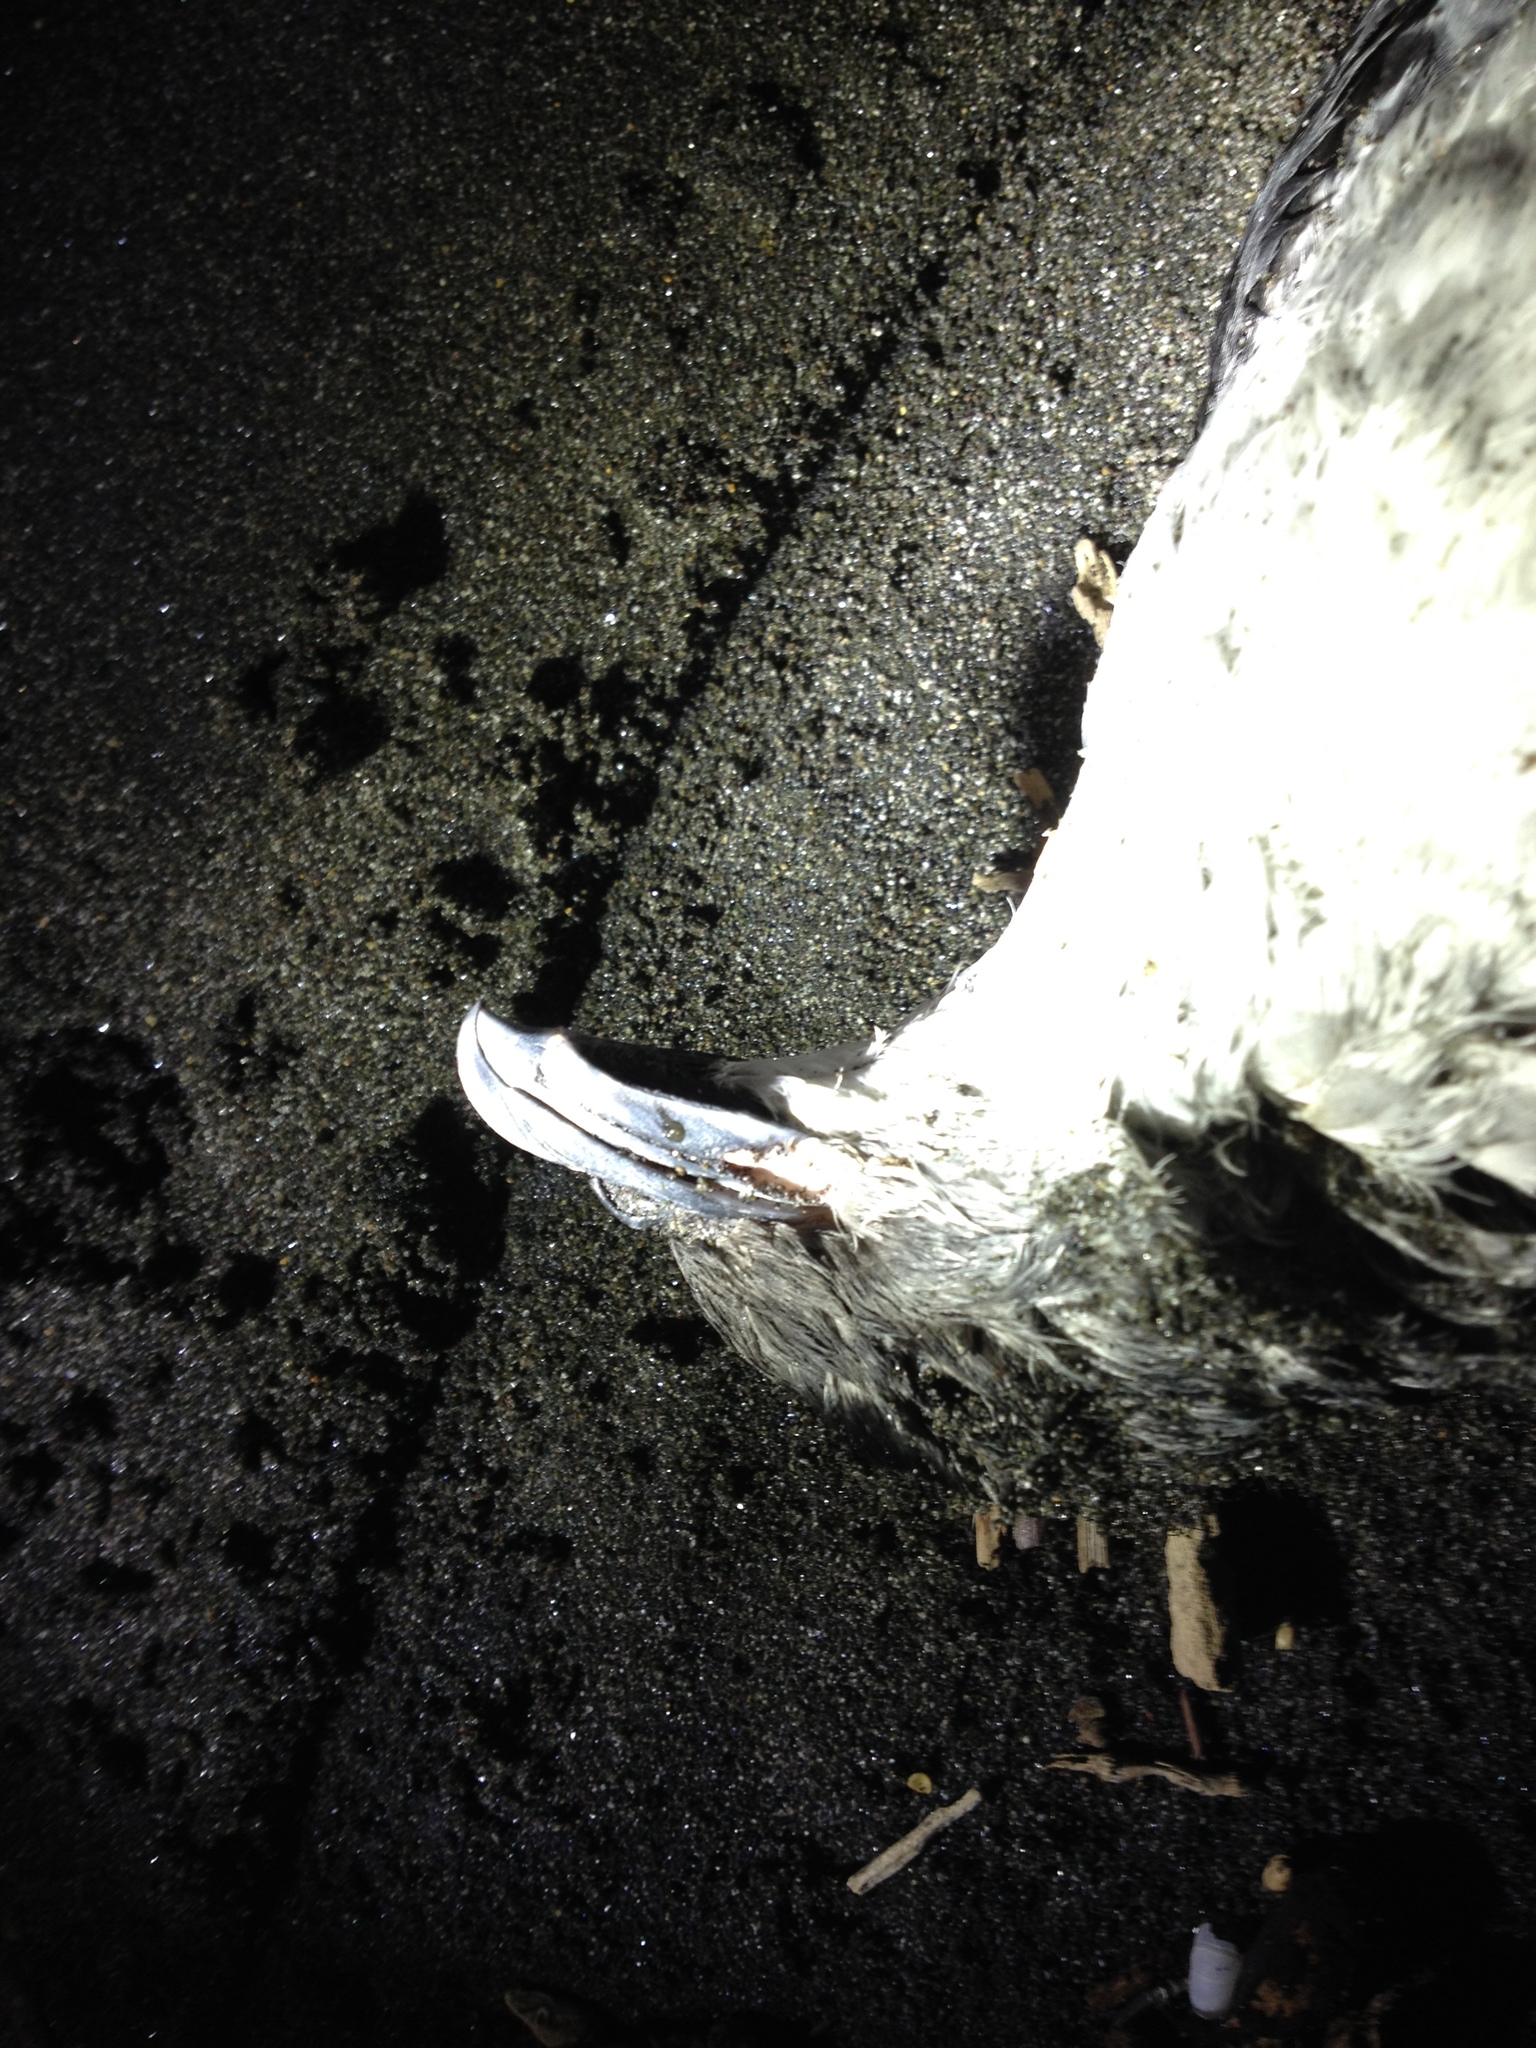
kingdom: Animalia
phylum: Chordata
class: Aves
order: Procellariiformes
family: Pelecanoididae
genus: Pelecanoides
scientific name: Pelecanoides urinatrix
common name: Common diving-petrel
